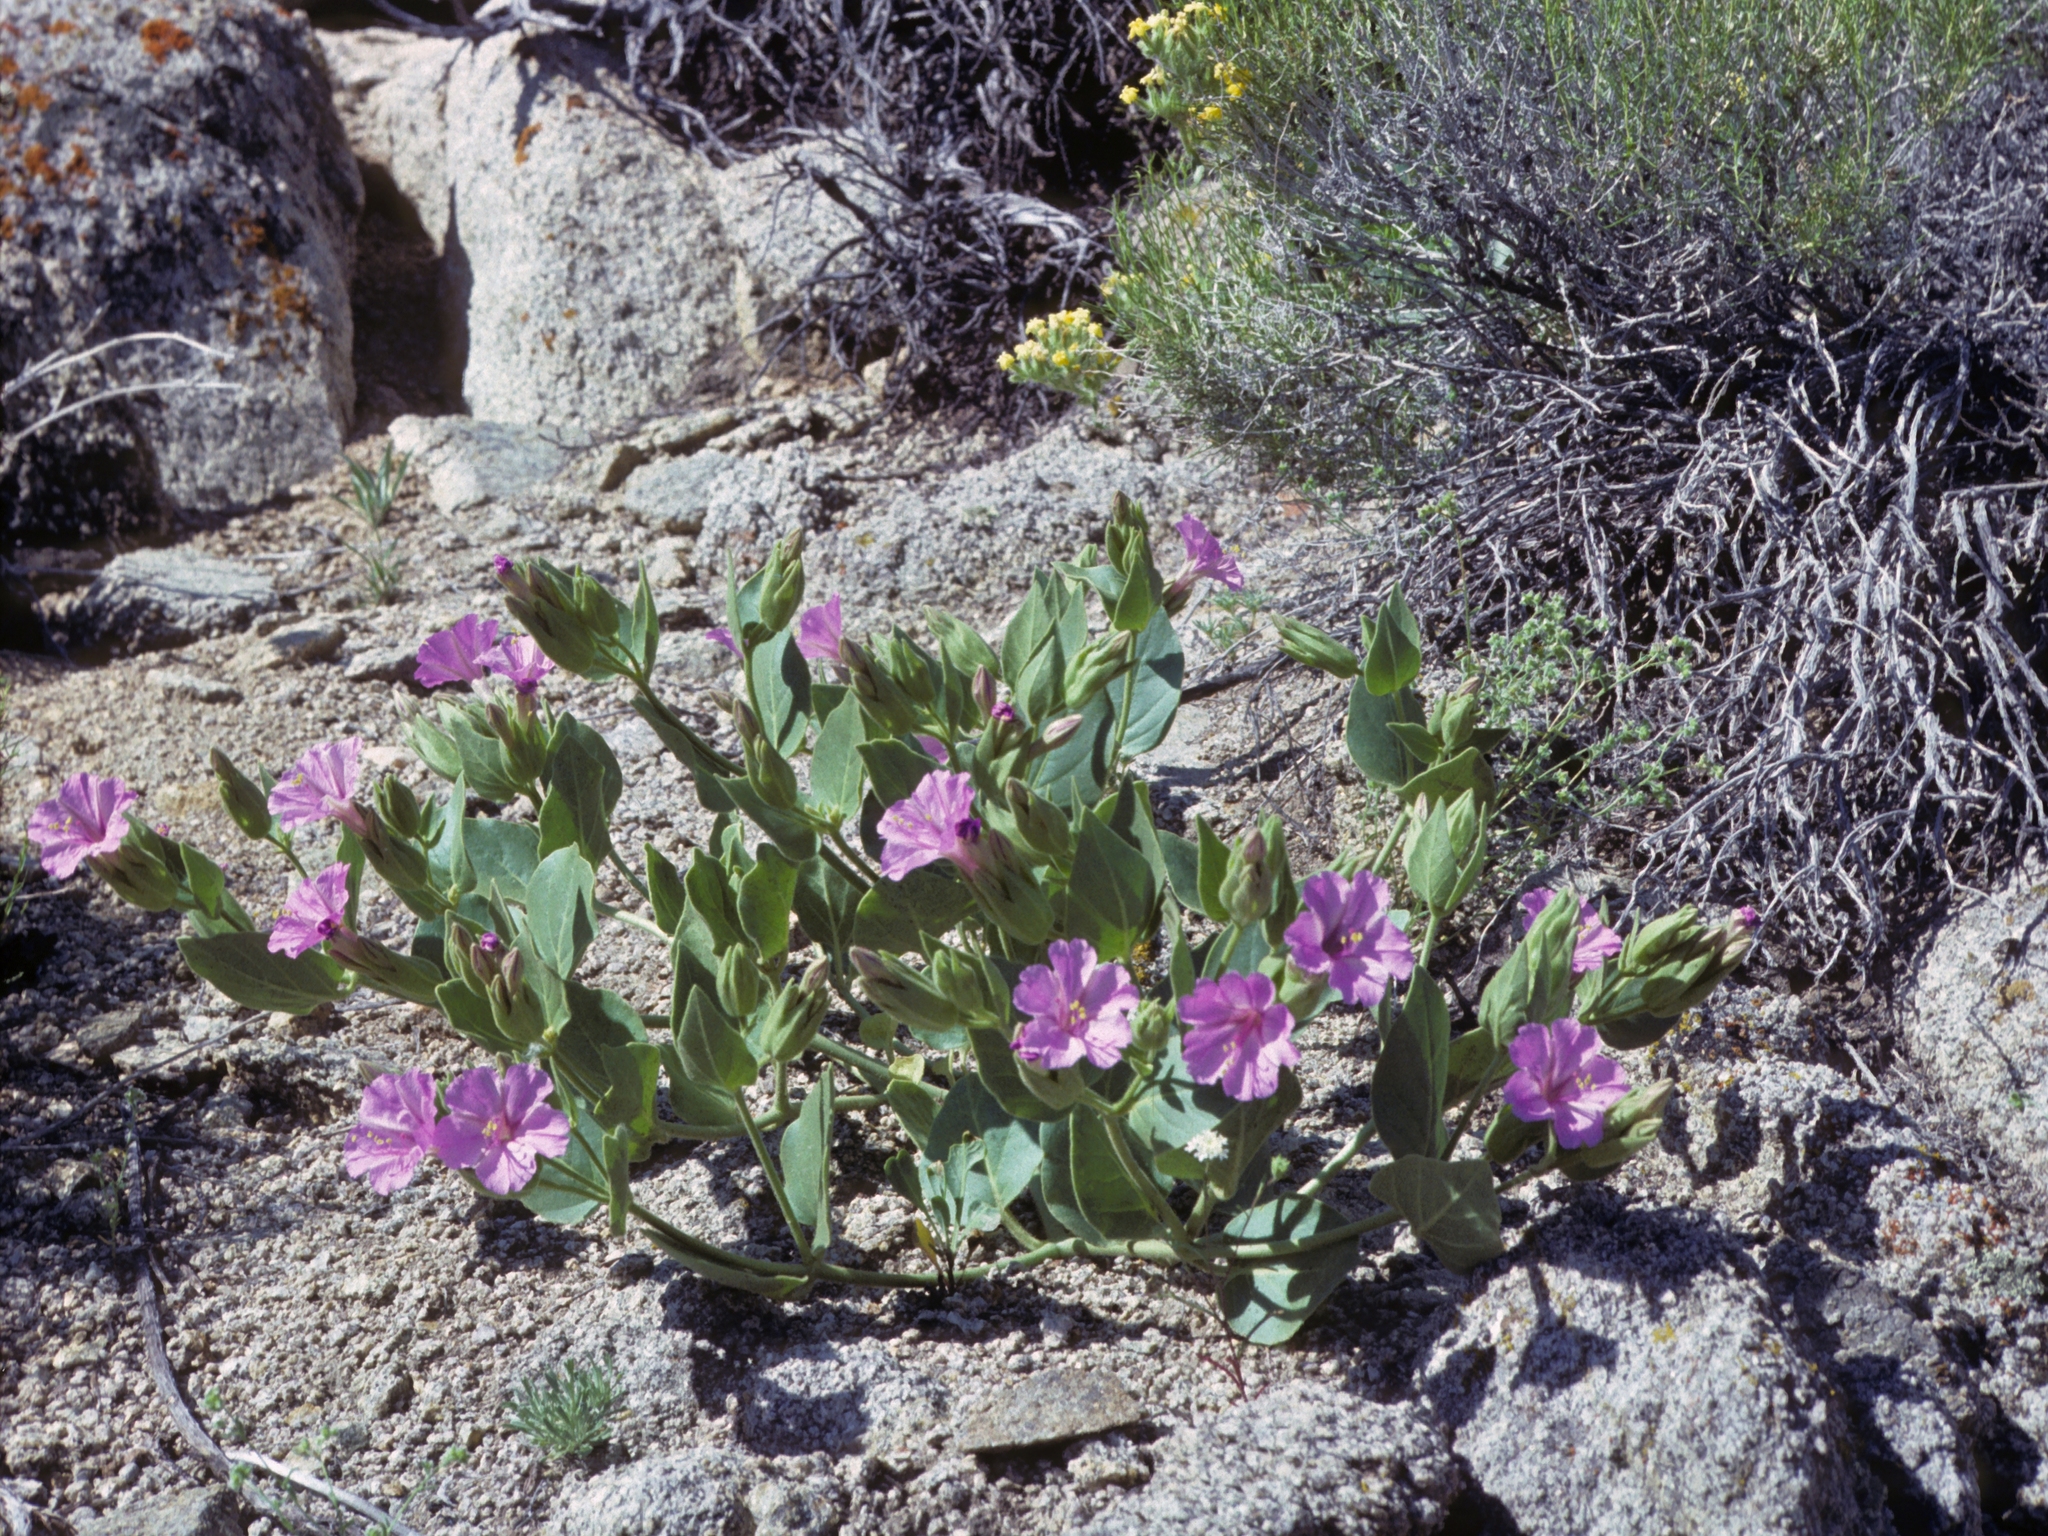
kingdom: Plantae
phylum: Tracheophyta
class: Magnoliopsida
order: Caryophyllales
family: Nyctaginaceae
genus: Mirabilis
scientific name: Mirabilis multiflora
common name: Froebel's four-o'clock
